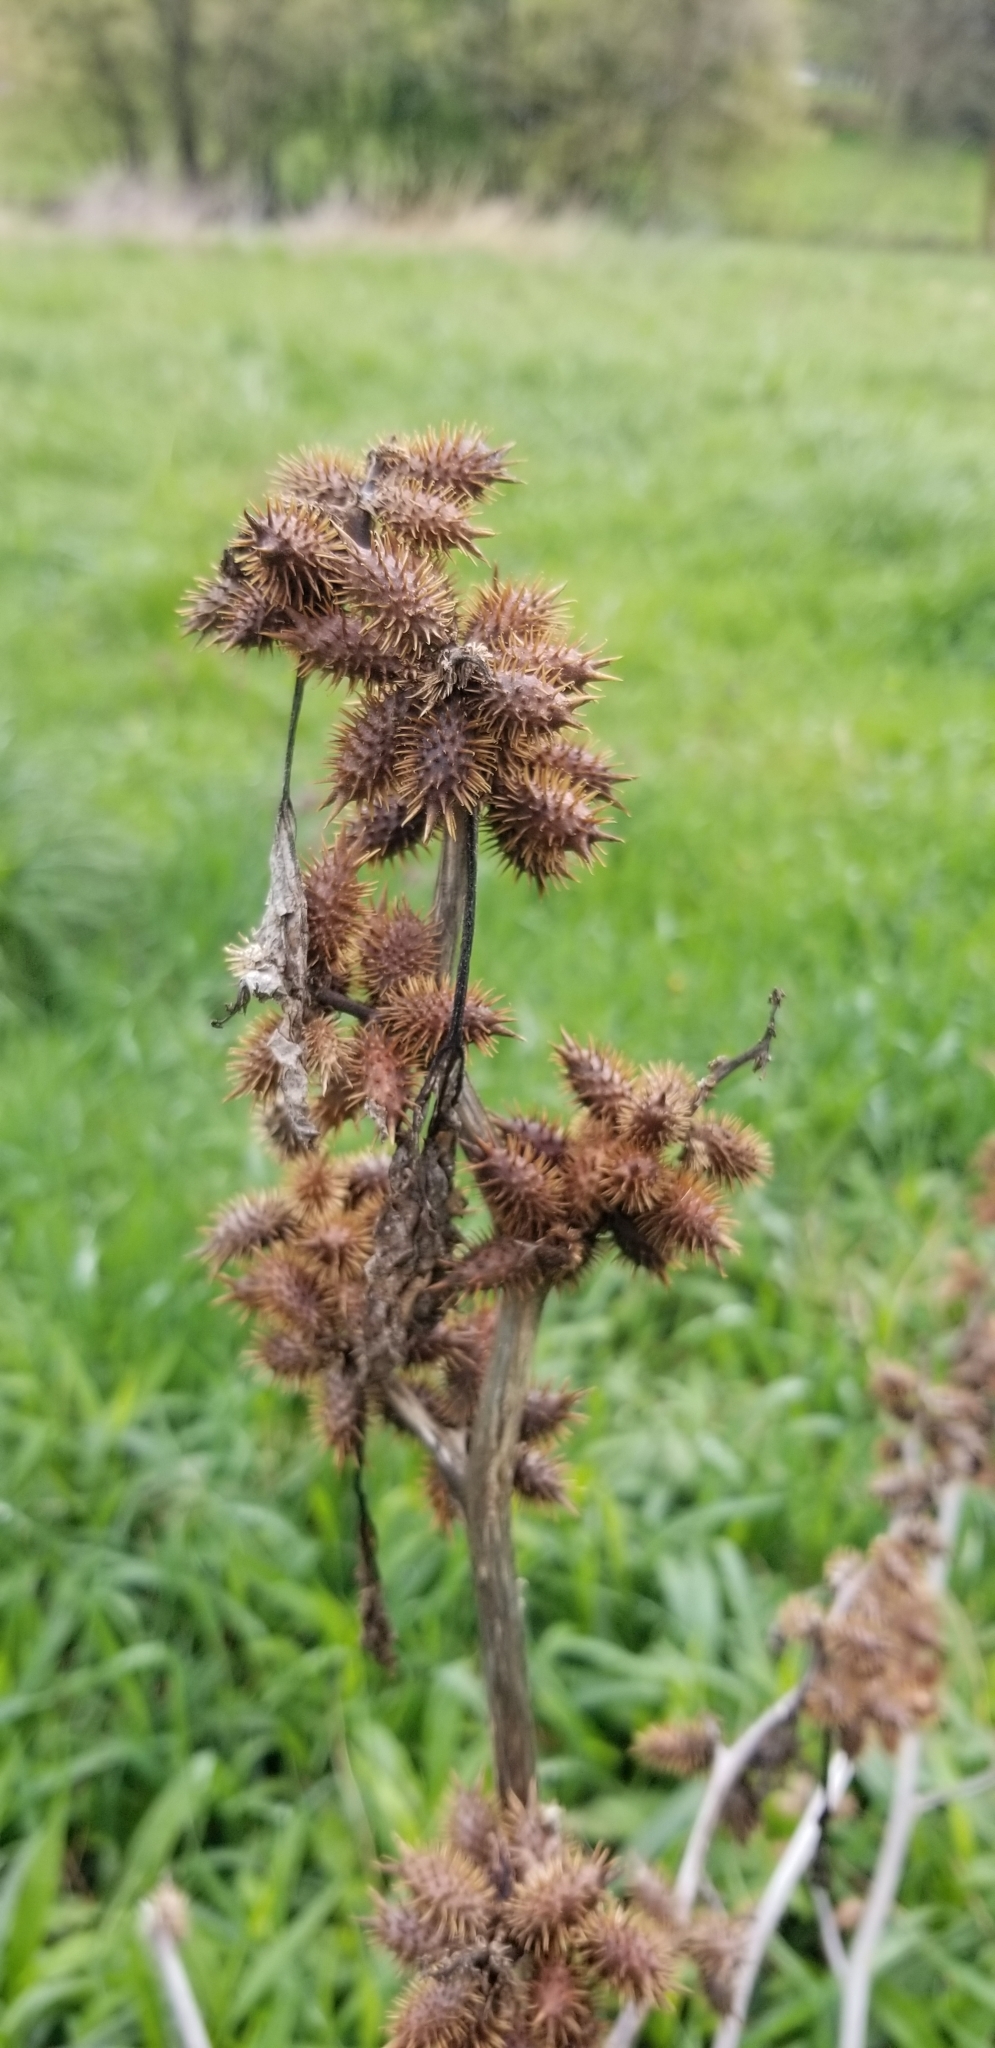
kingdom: Plantae
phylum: Tracheophyta
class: Magnoliopsida
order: Asterales
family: Asteraceae
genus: Xanthium
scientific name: Xanthium strumarium
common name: Rough cocklebur
